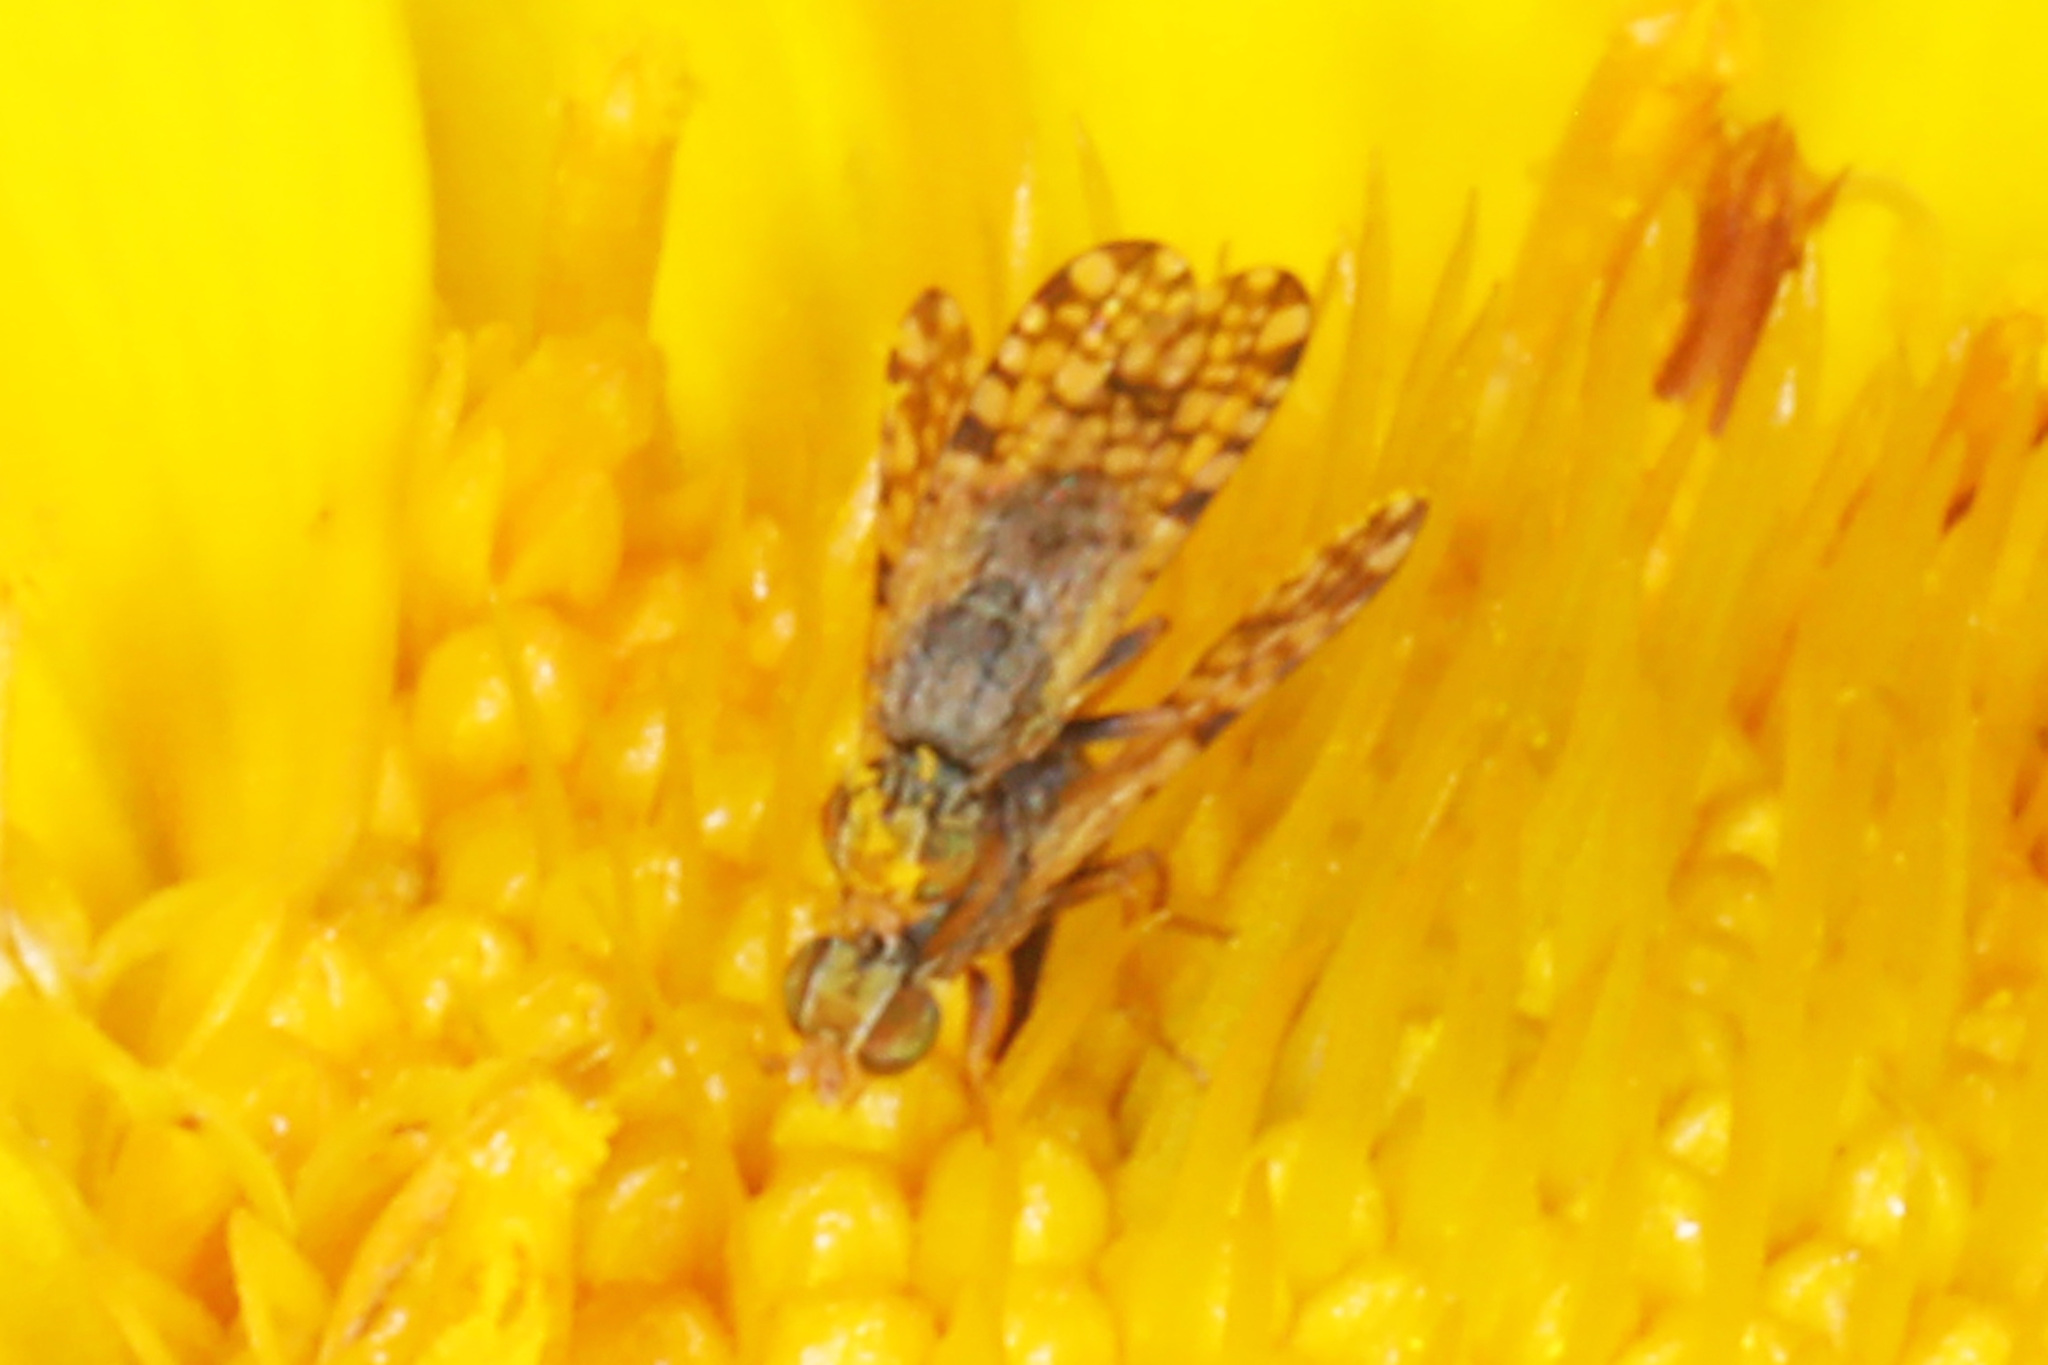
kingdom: Animalia
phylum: Arthropoda
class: Insecta
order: Diptera
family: Tephritidae
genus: Dioxyna
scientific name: Dioxyna picciola
